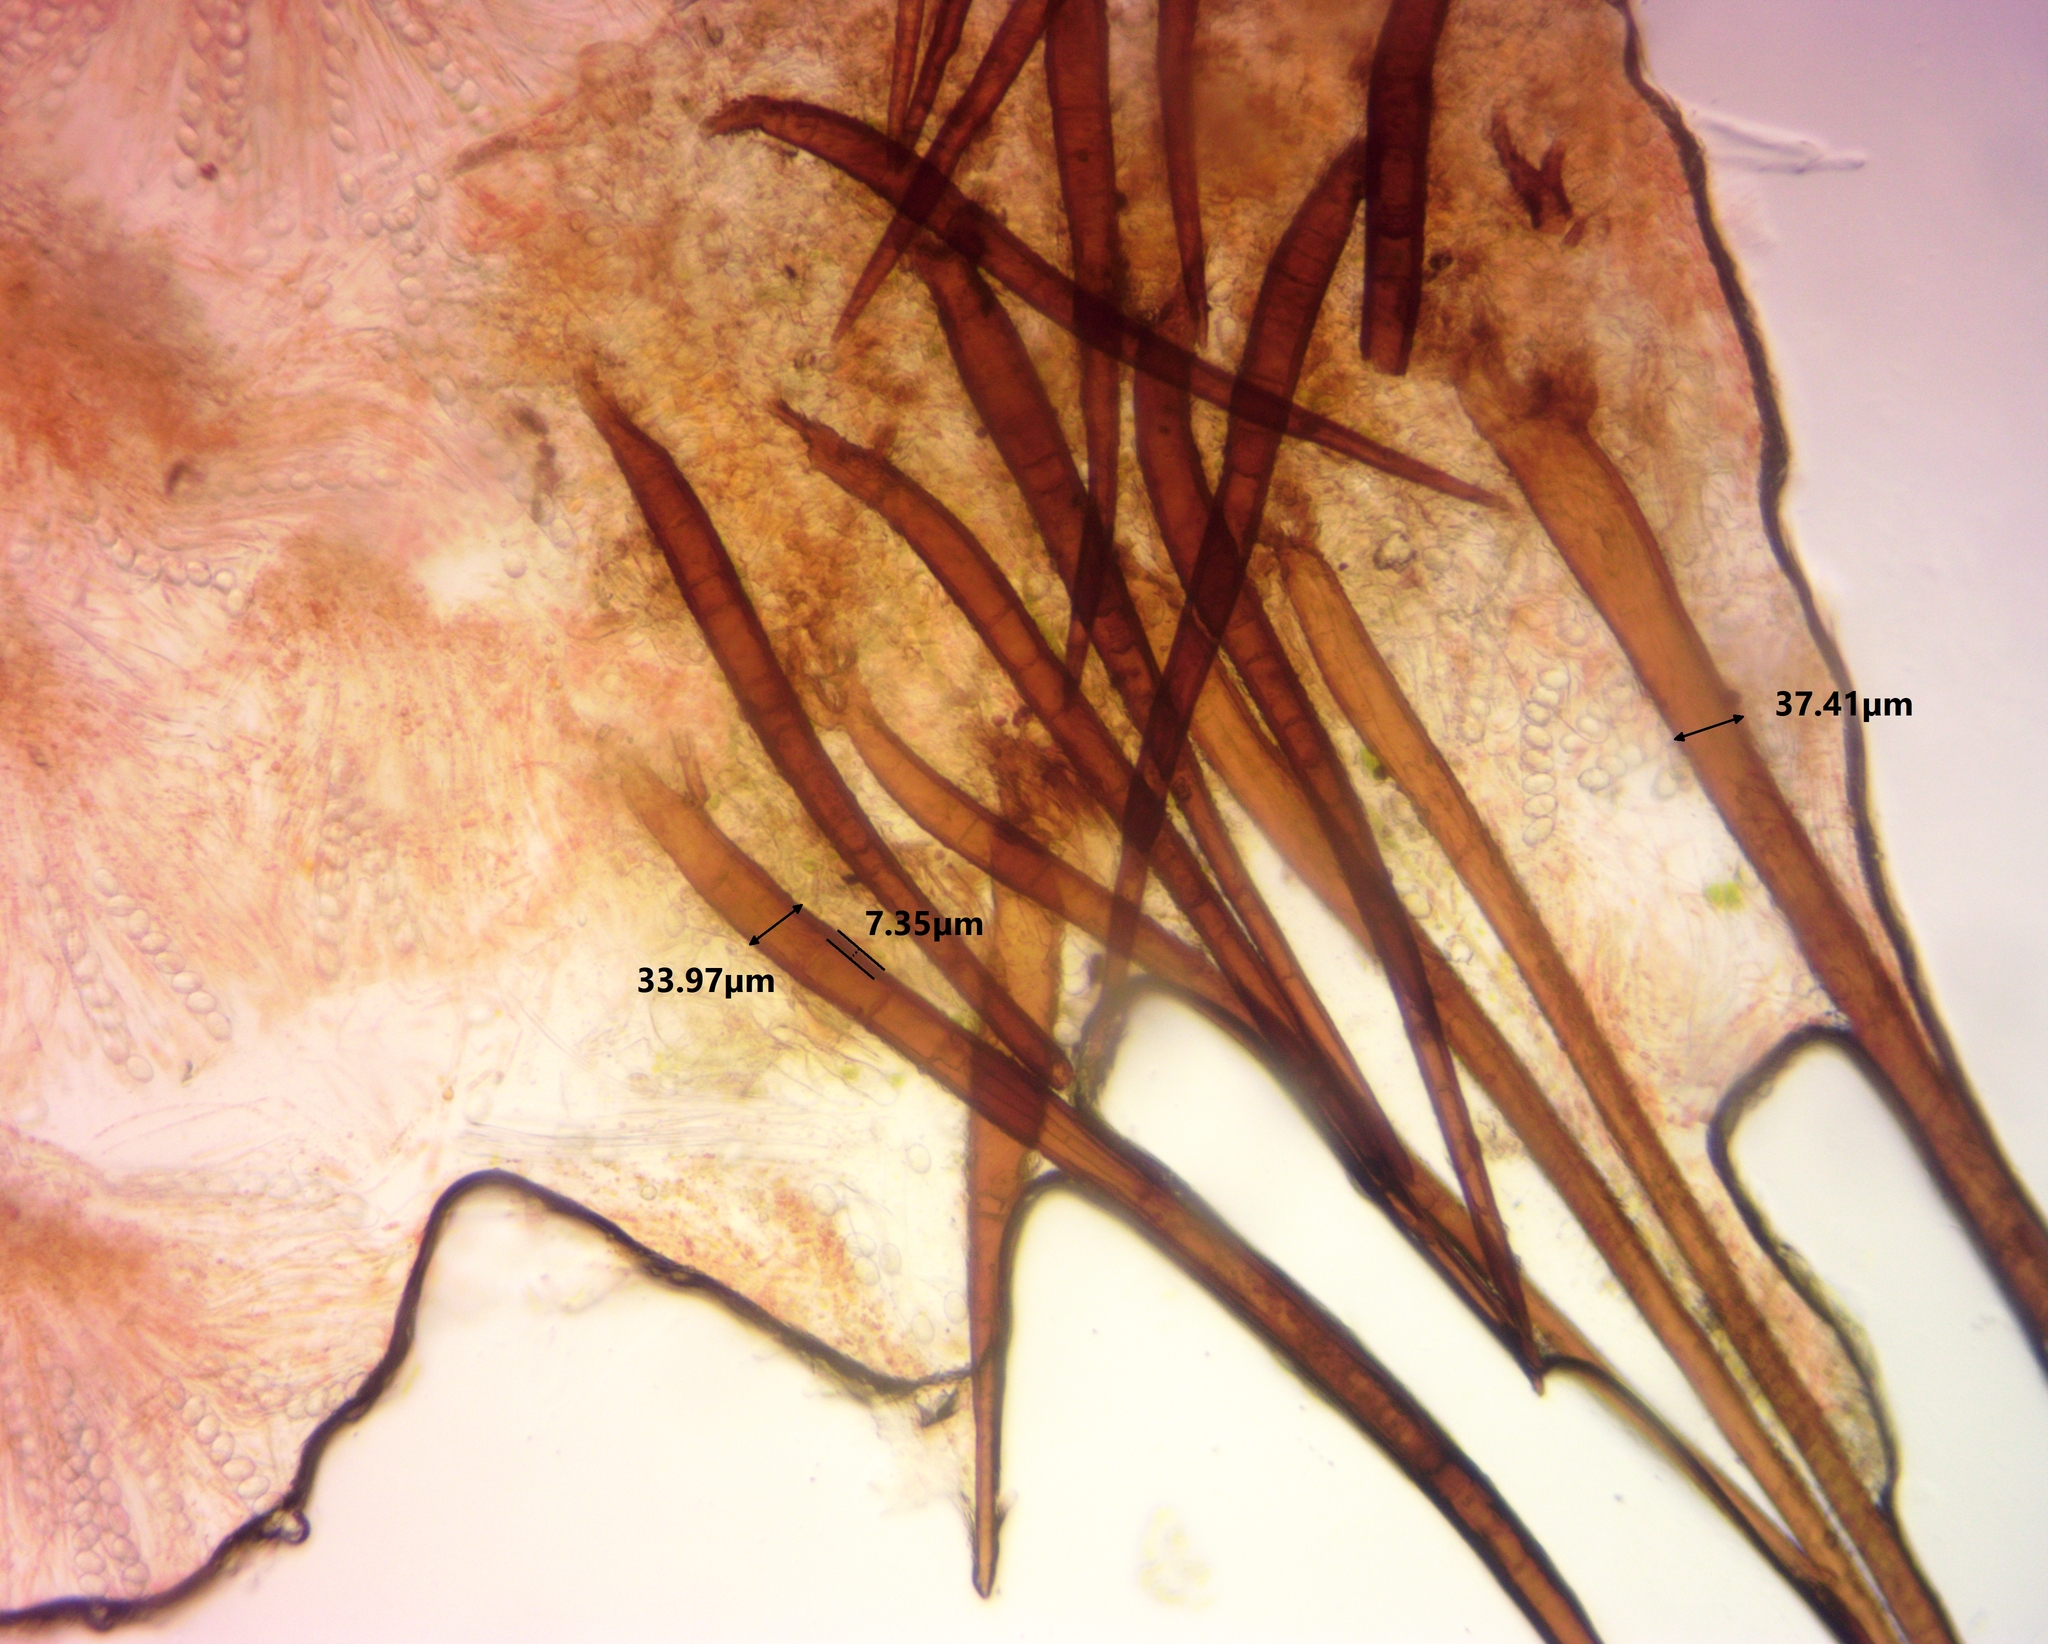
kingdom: Fungi
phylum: Ascomycota
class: Pezizomycetes
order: Pezizales
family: Pyronemataceae
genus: Scutellinia
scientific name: Scutellinia subhirtella
